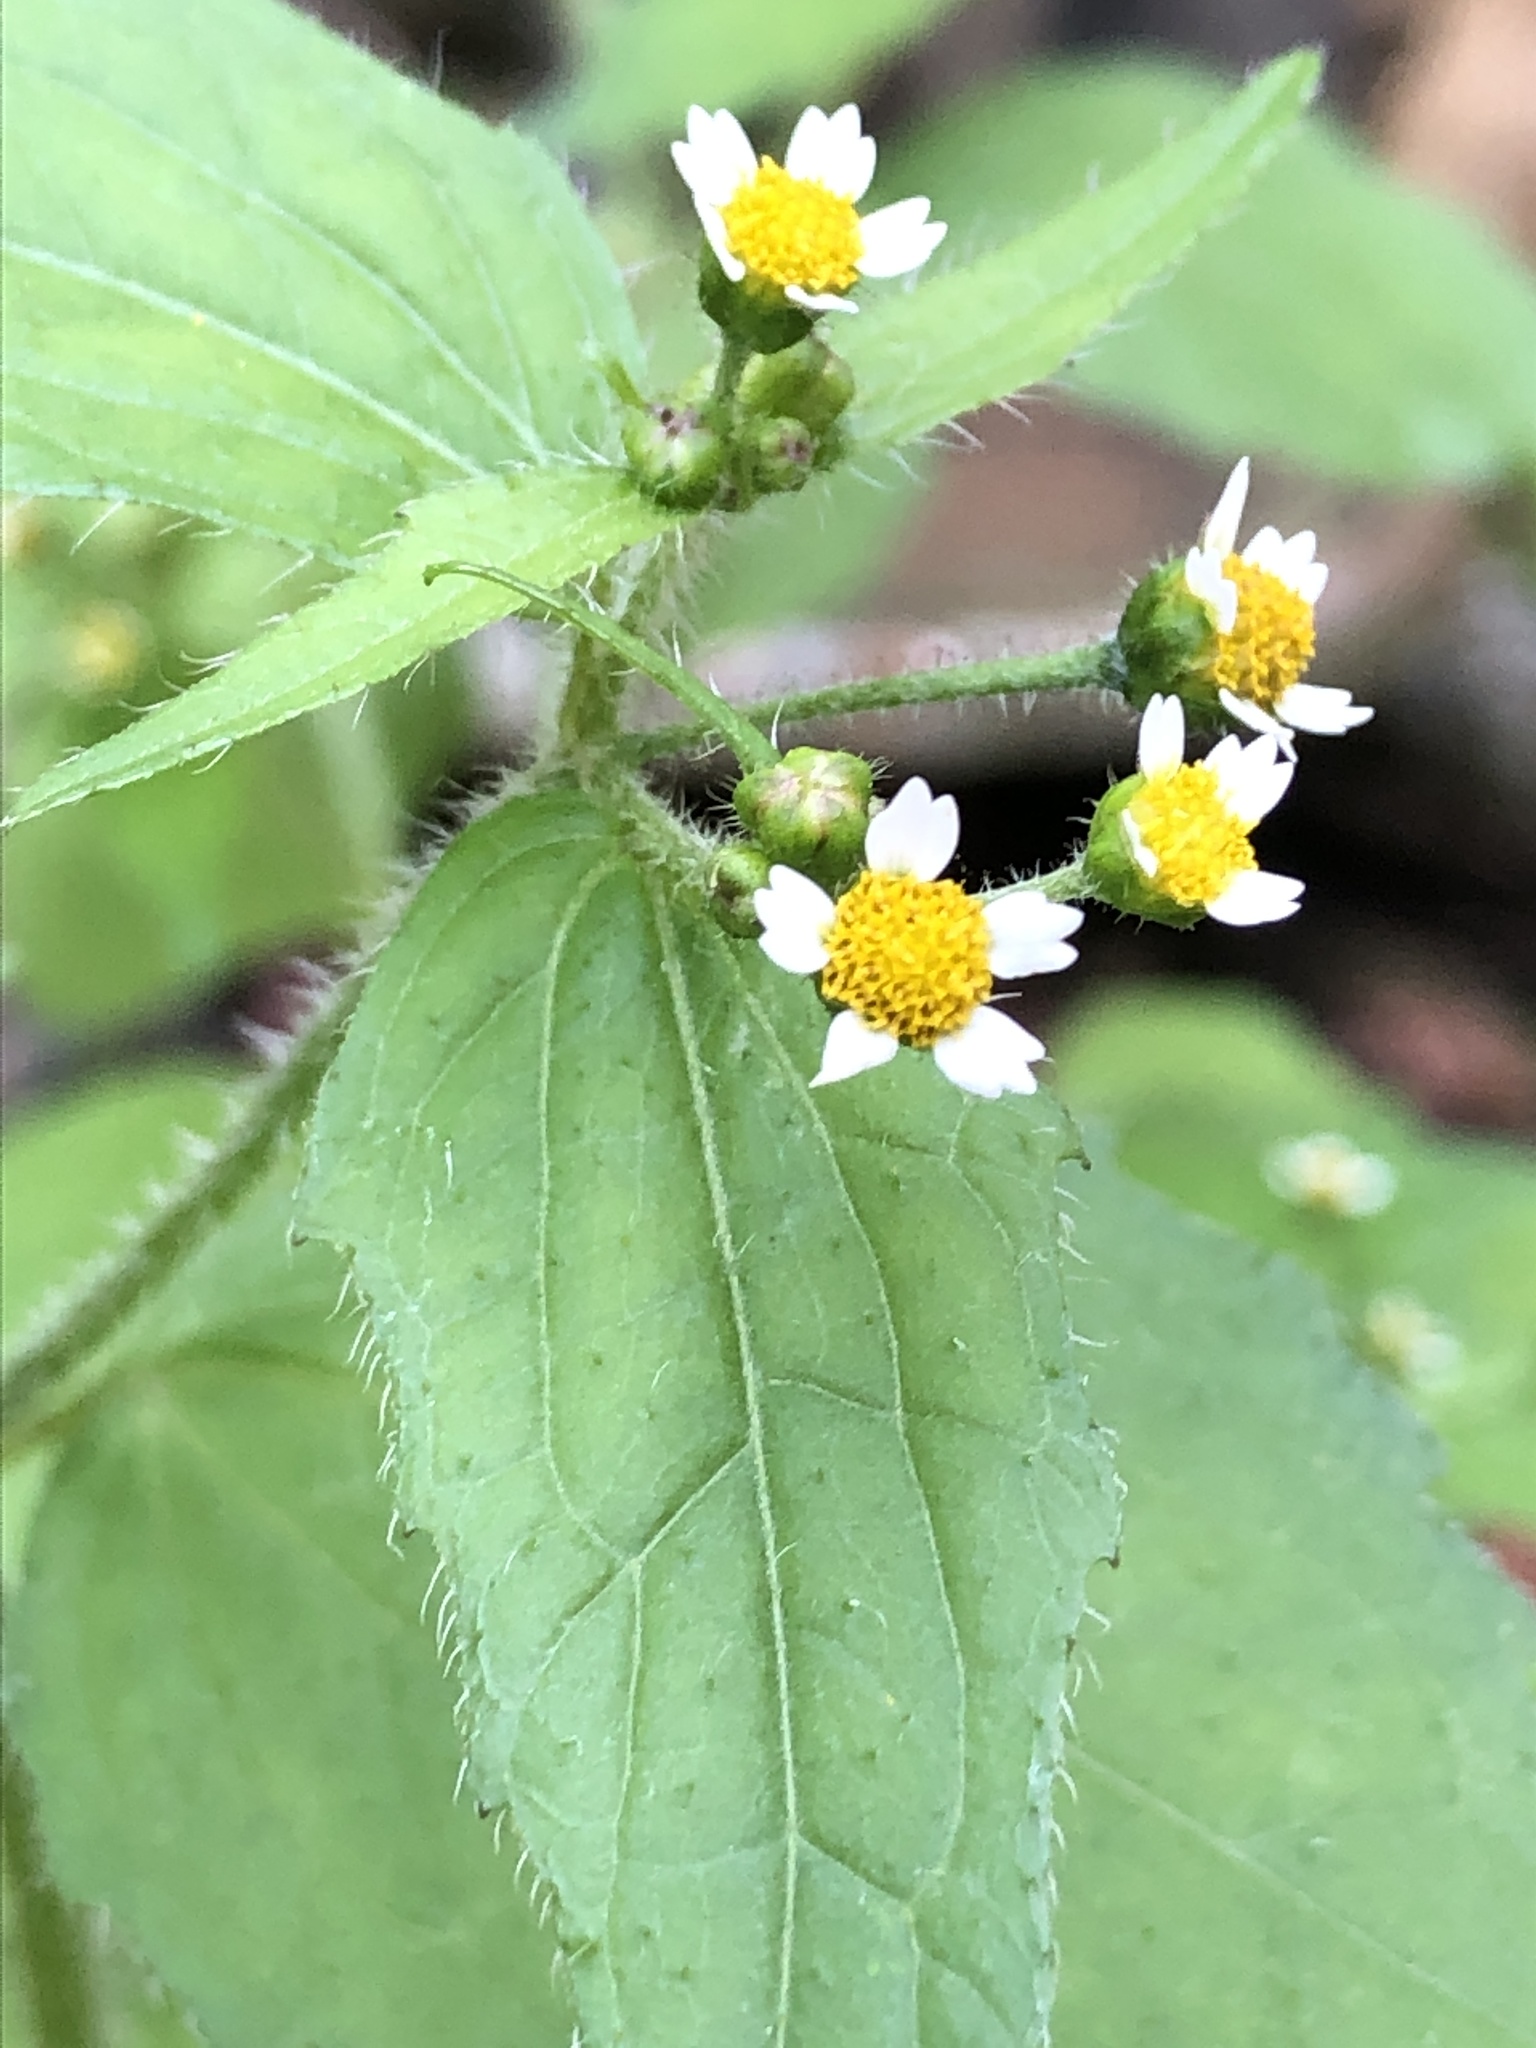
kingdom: Plantae
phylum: Tracheophyta
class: Magnoliopsida
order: Asterales
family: Asteraceae
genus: Galinsoga
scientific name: Galinsoga quadriradiata
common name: Shaggy soldier
